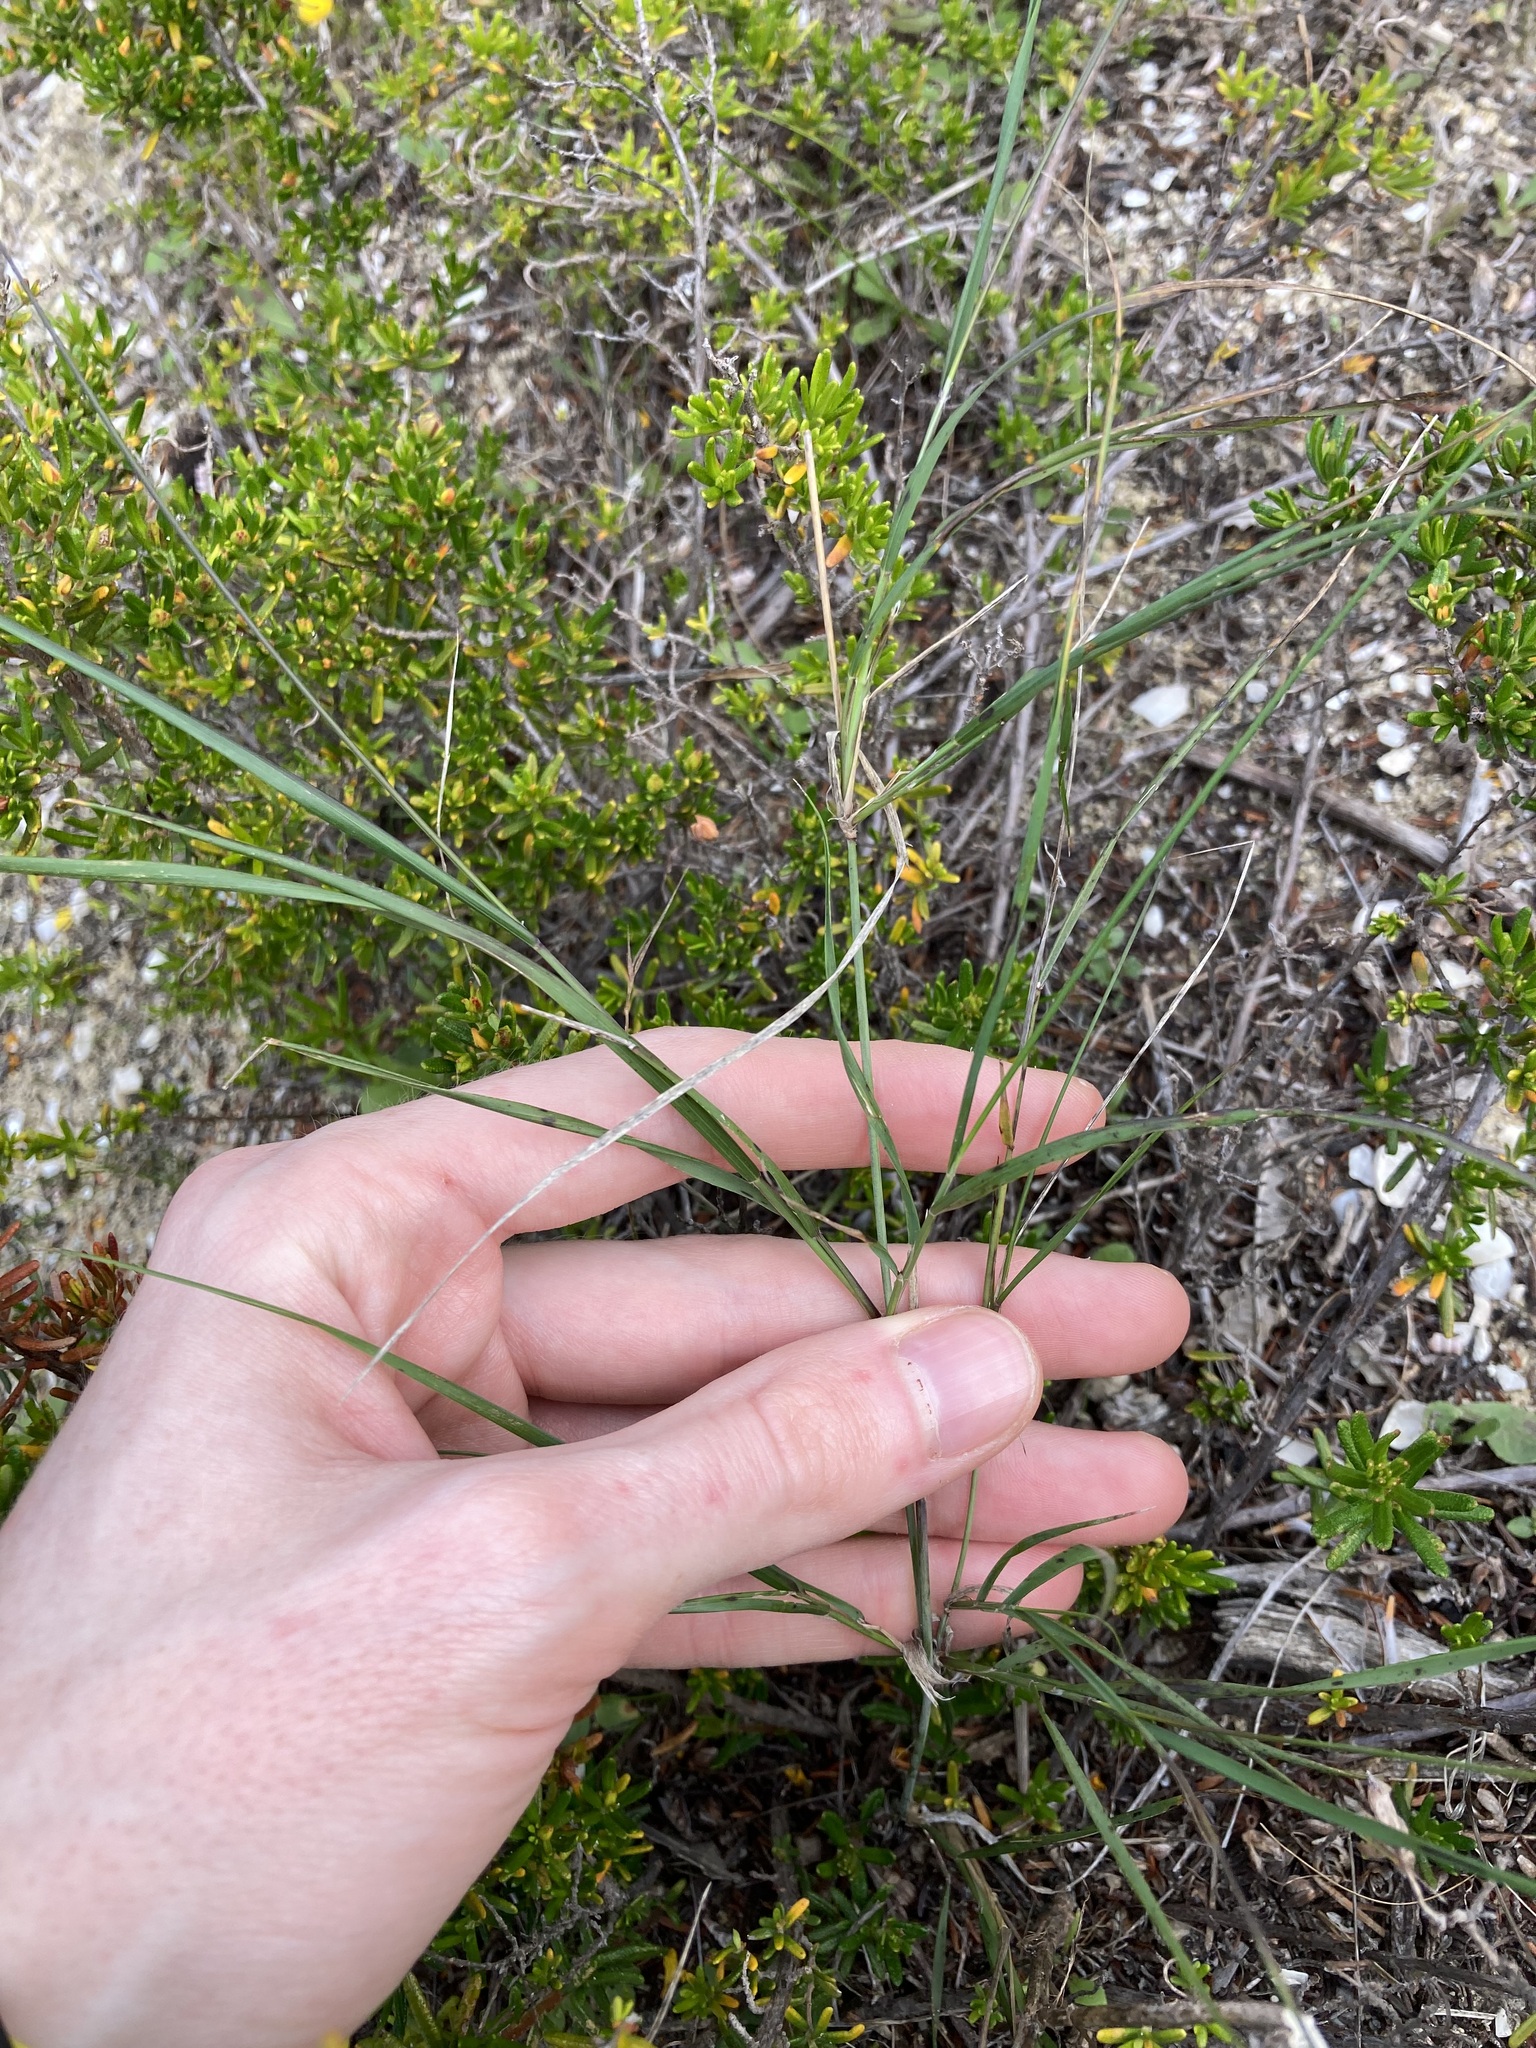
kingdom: Plantae
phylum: Tracheophyta
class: Liliopsida
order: Poales
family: Poaceae
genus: Austrostipa
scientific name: Austrostipa elegantissima
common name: Feather spear grass
